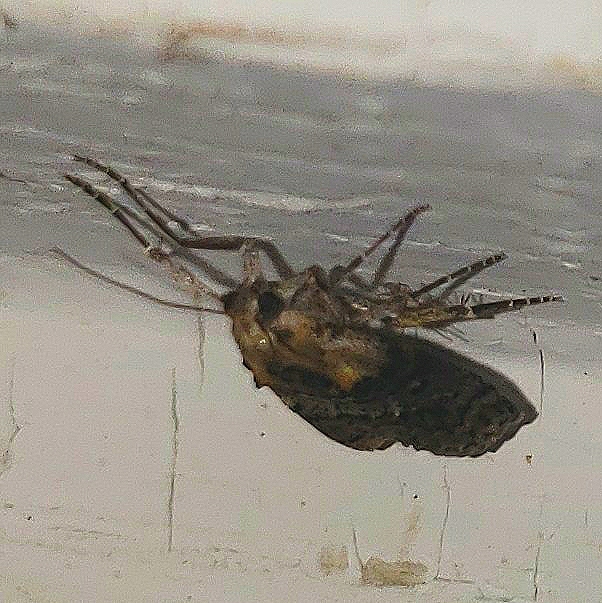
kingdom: Animalia
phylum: Arthropoda
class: Insecta
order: Lepidoptera
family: Pyralidae
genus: Pococera
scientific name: Pococera expandens
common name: Striped oak webworm moth
